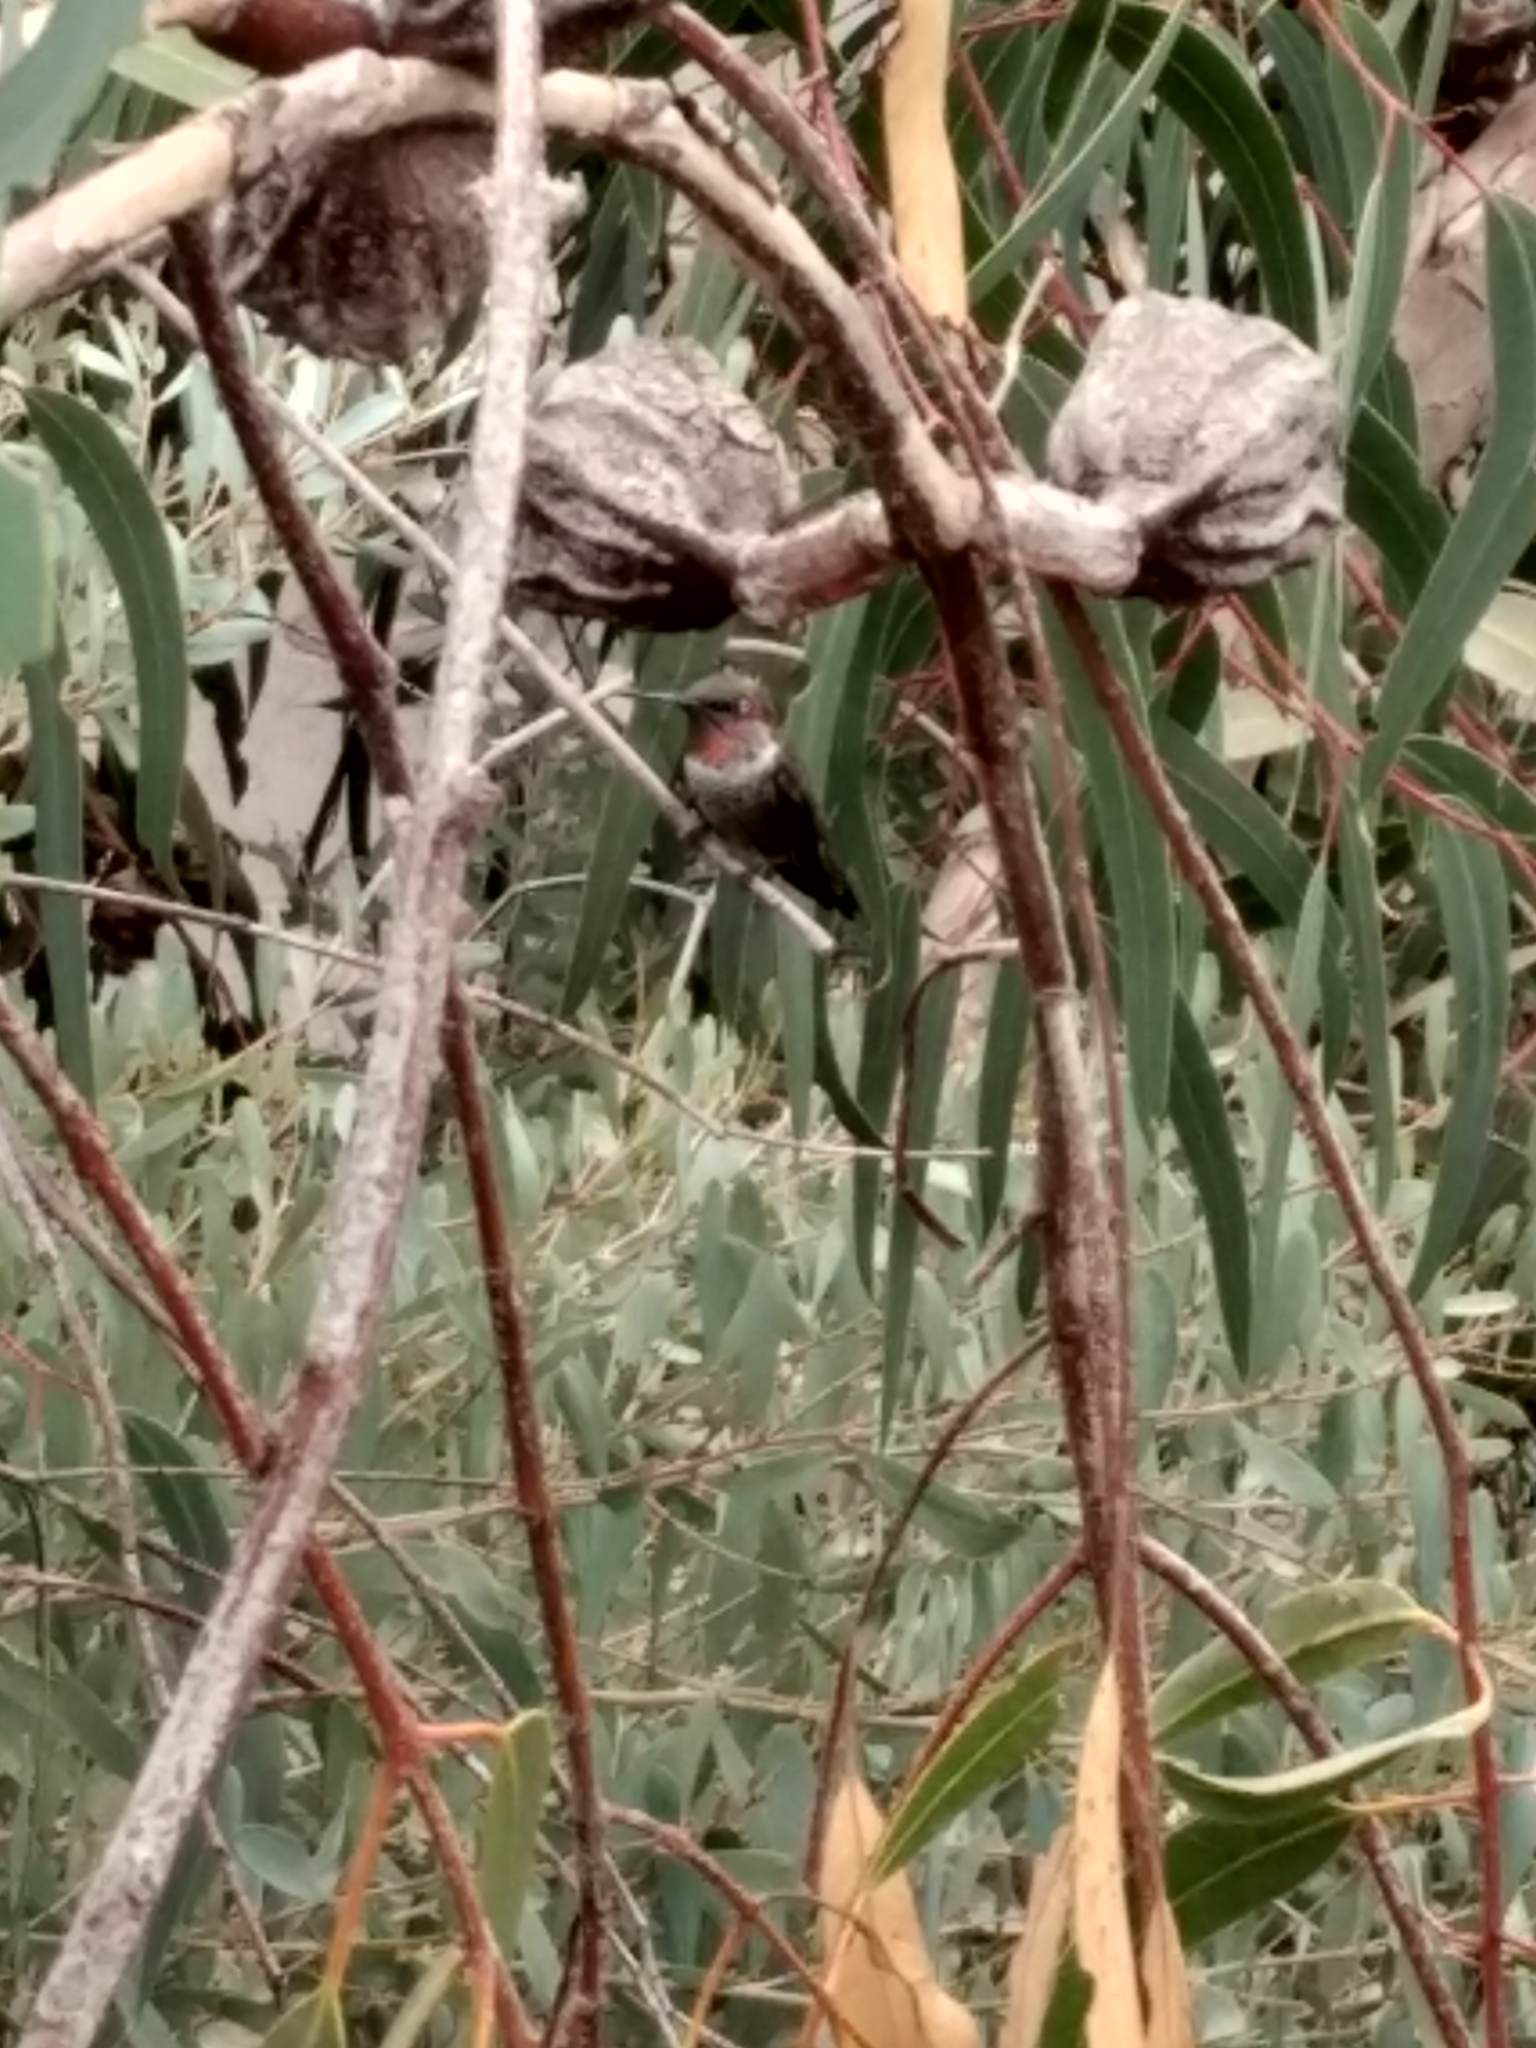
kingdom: Animalia
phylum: Chordata
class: Aves
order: Apodiformes
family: Trochilidae
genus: Calypte
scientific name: Calypte anna
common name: Anna's hummingbird
